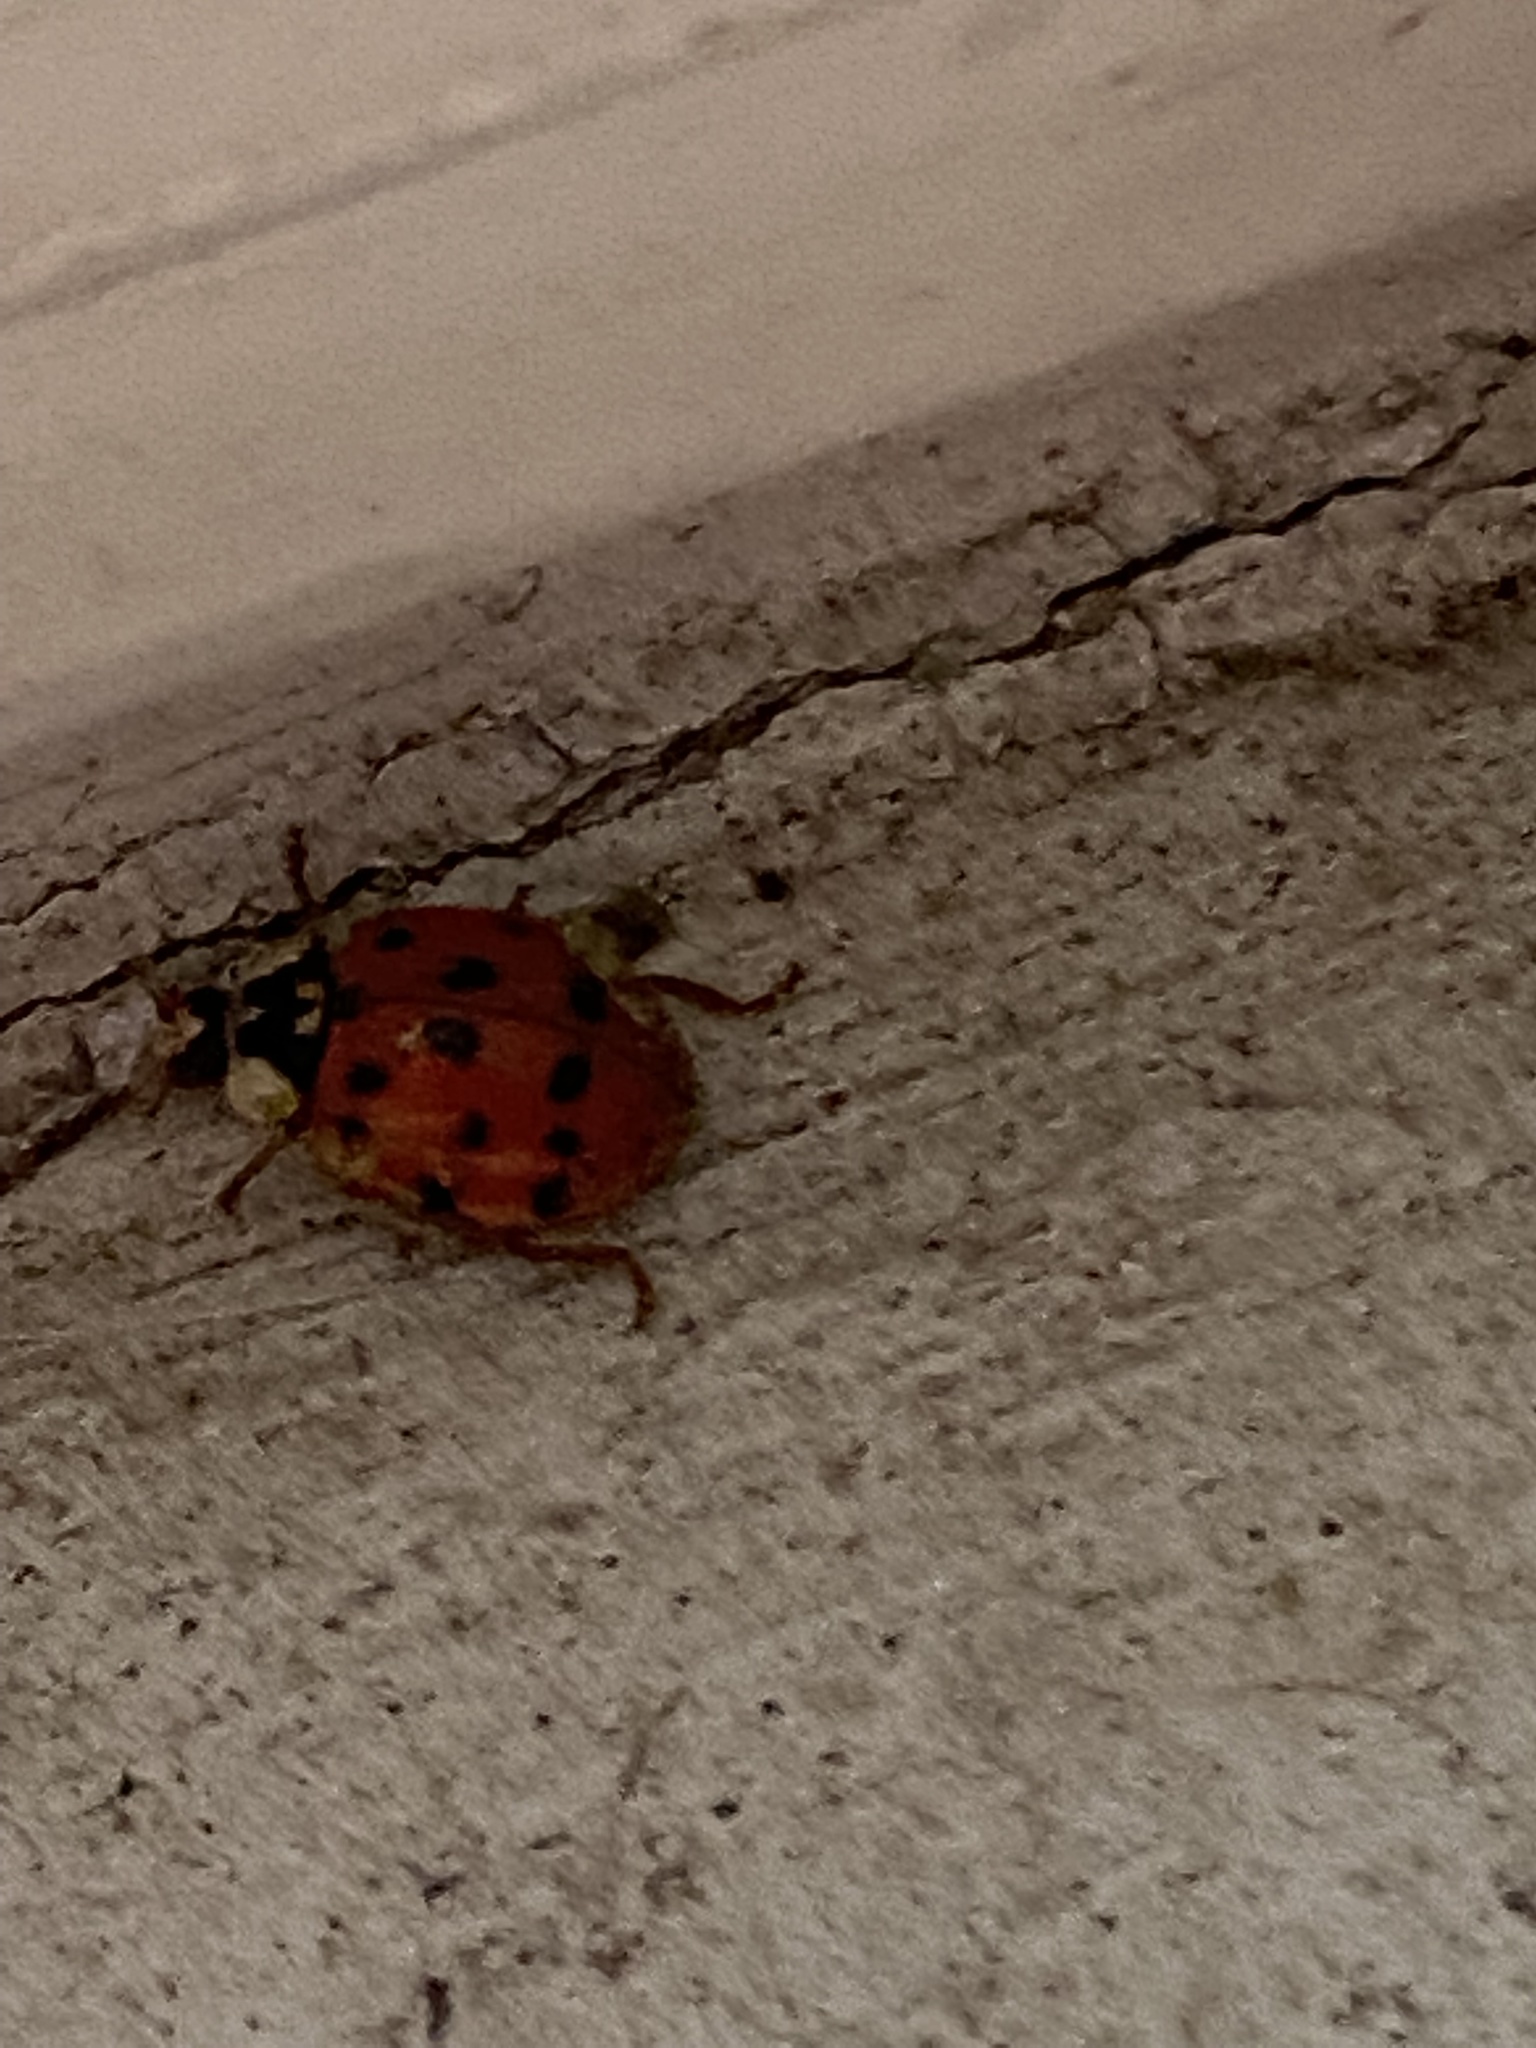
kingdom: Animalia
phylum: Arthropoda
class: Insecta
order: Coleoptera
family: Coccinellidae
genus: Harmonia
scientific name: Harmonia axyridis
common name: Harlequin ladybird
